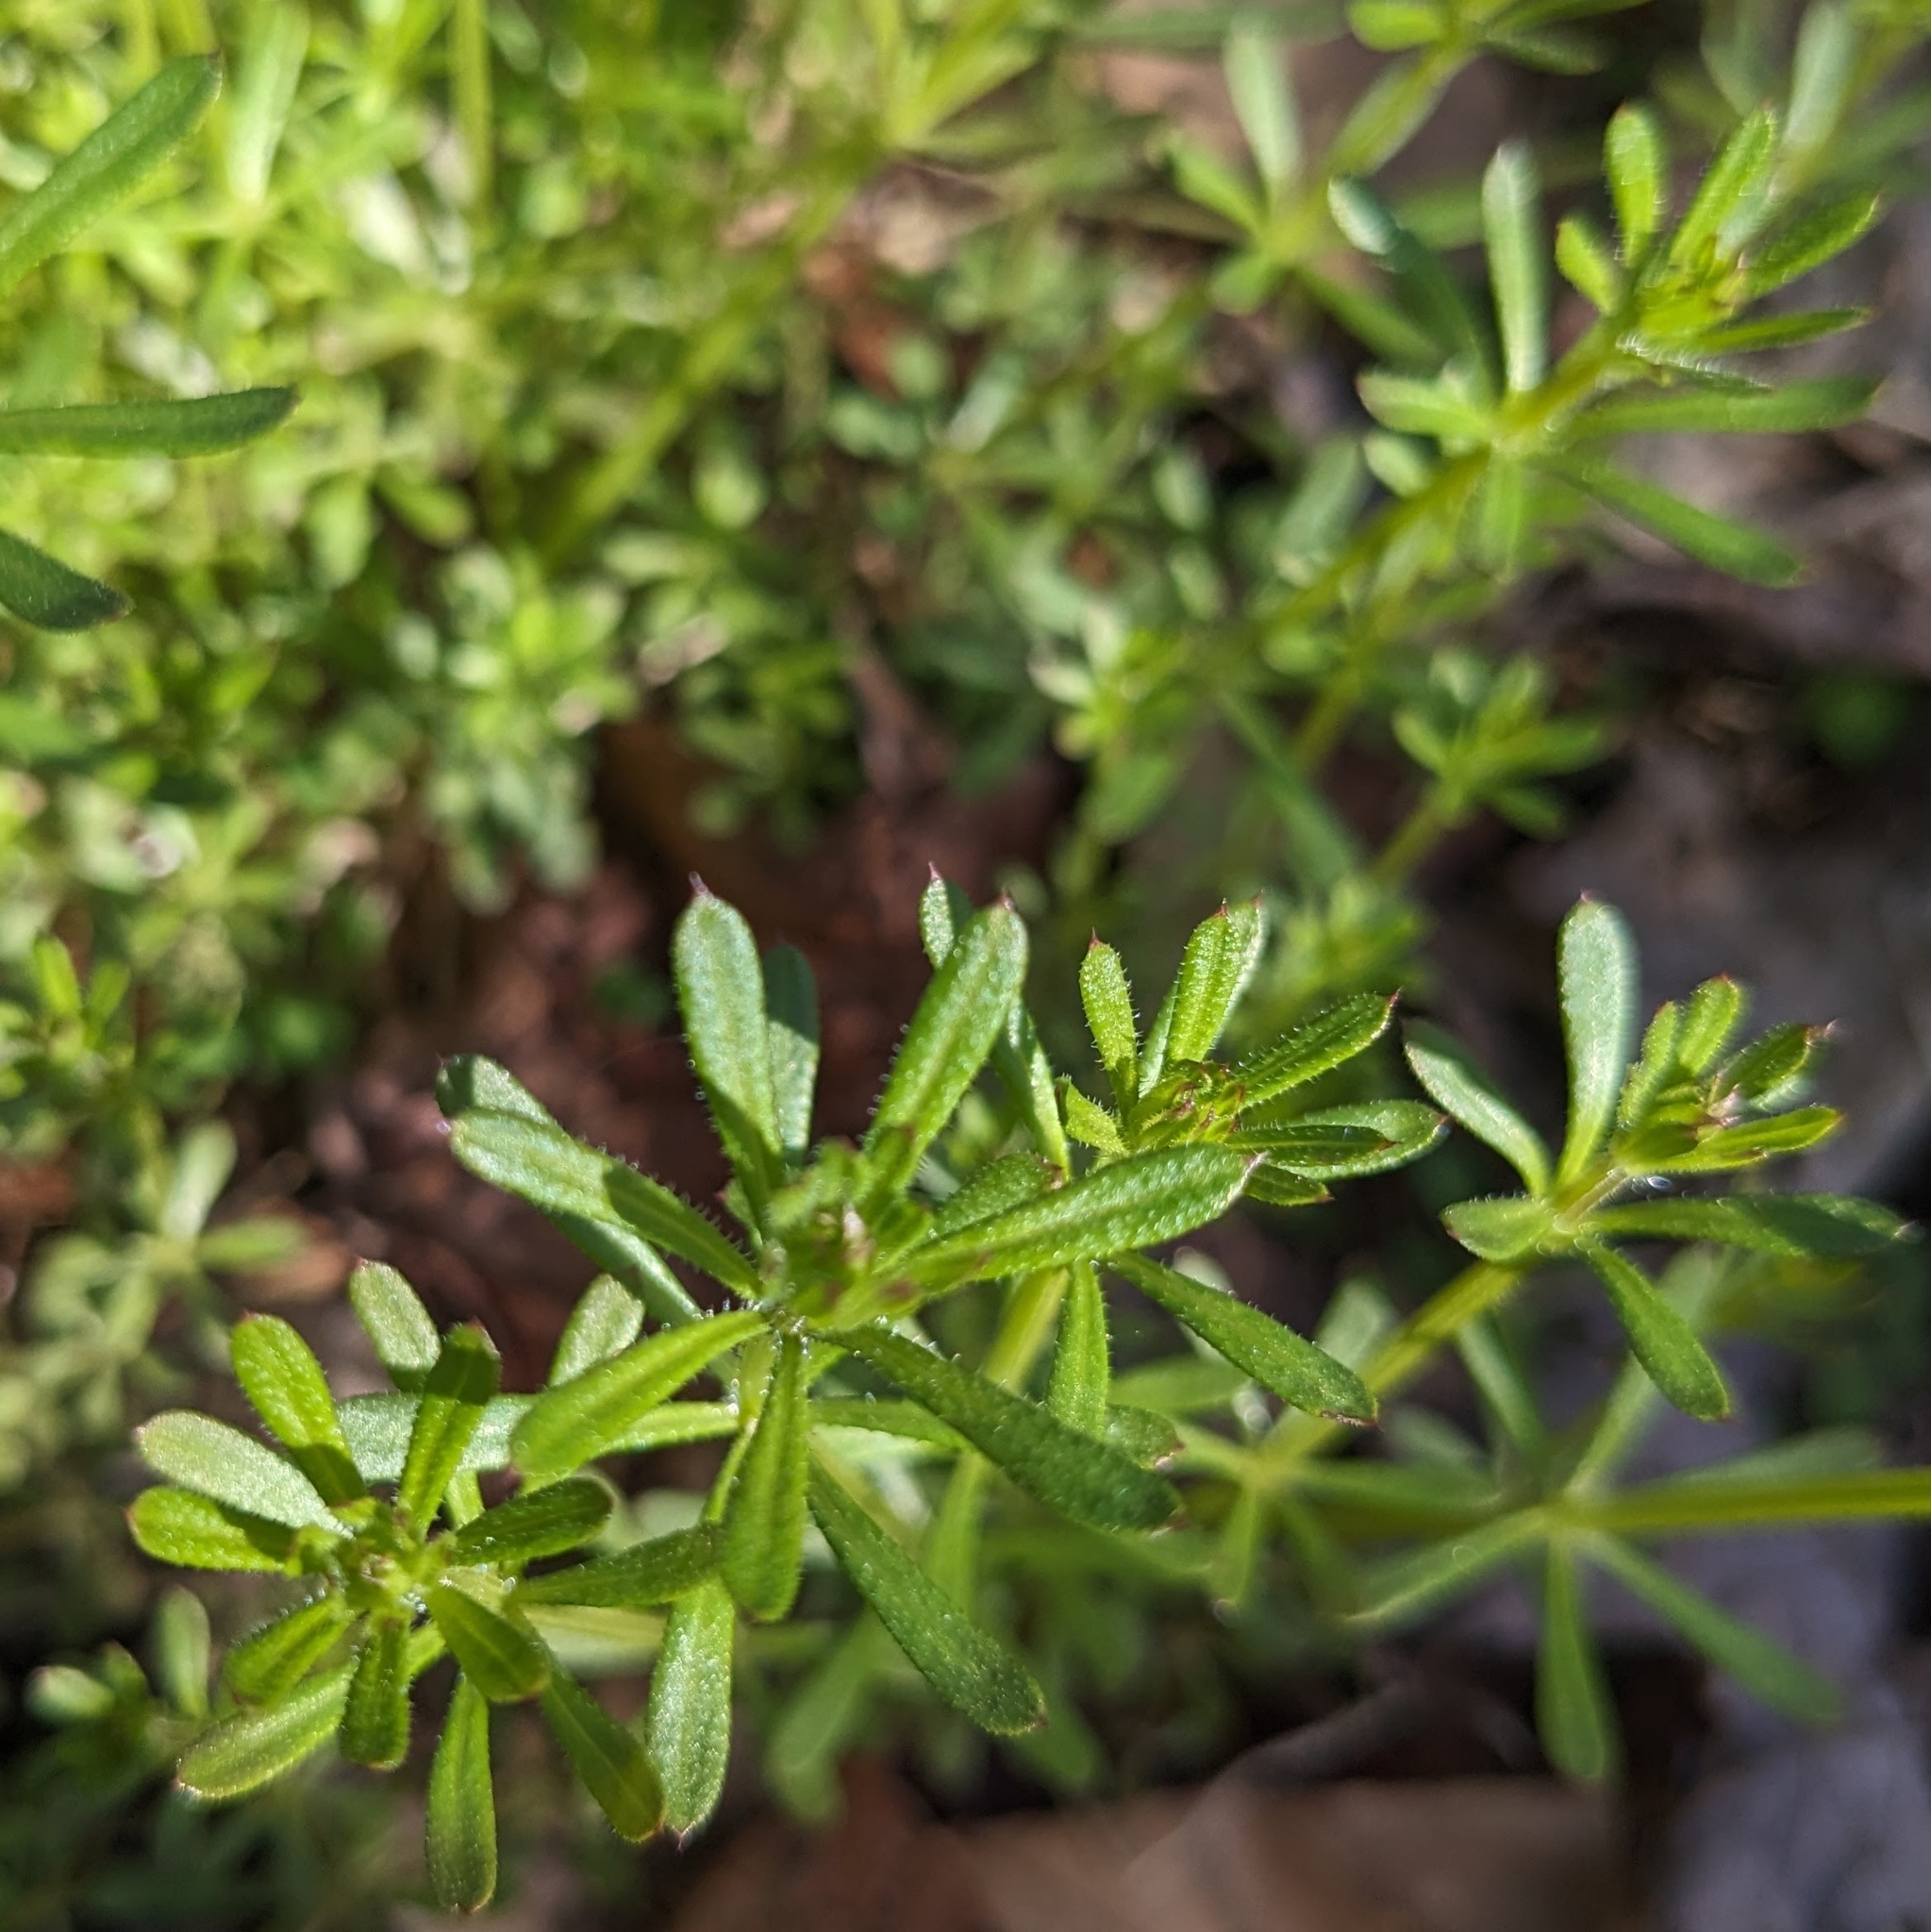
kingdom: Plantae
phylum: Tracheophyta
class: Magnoliopsida
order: Gentianales
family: Rubiaceae
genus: Galium
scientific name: Galium aparine
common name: Cleavers
